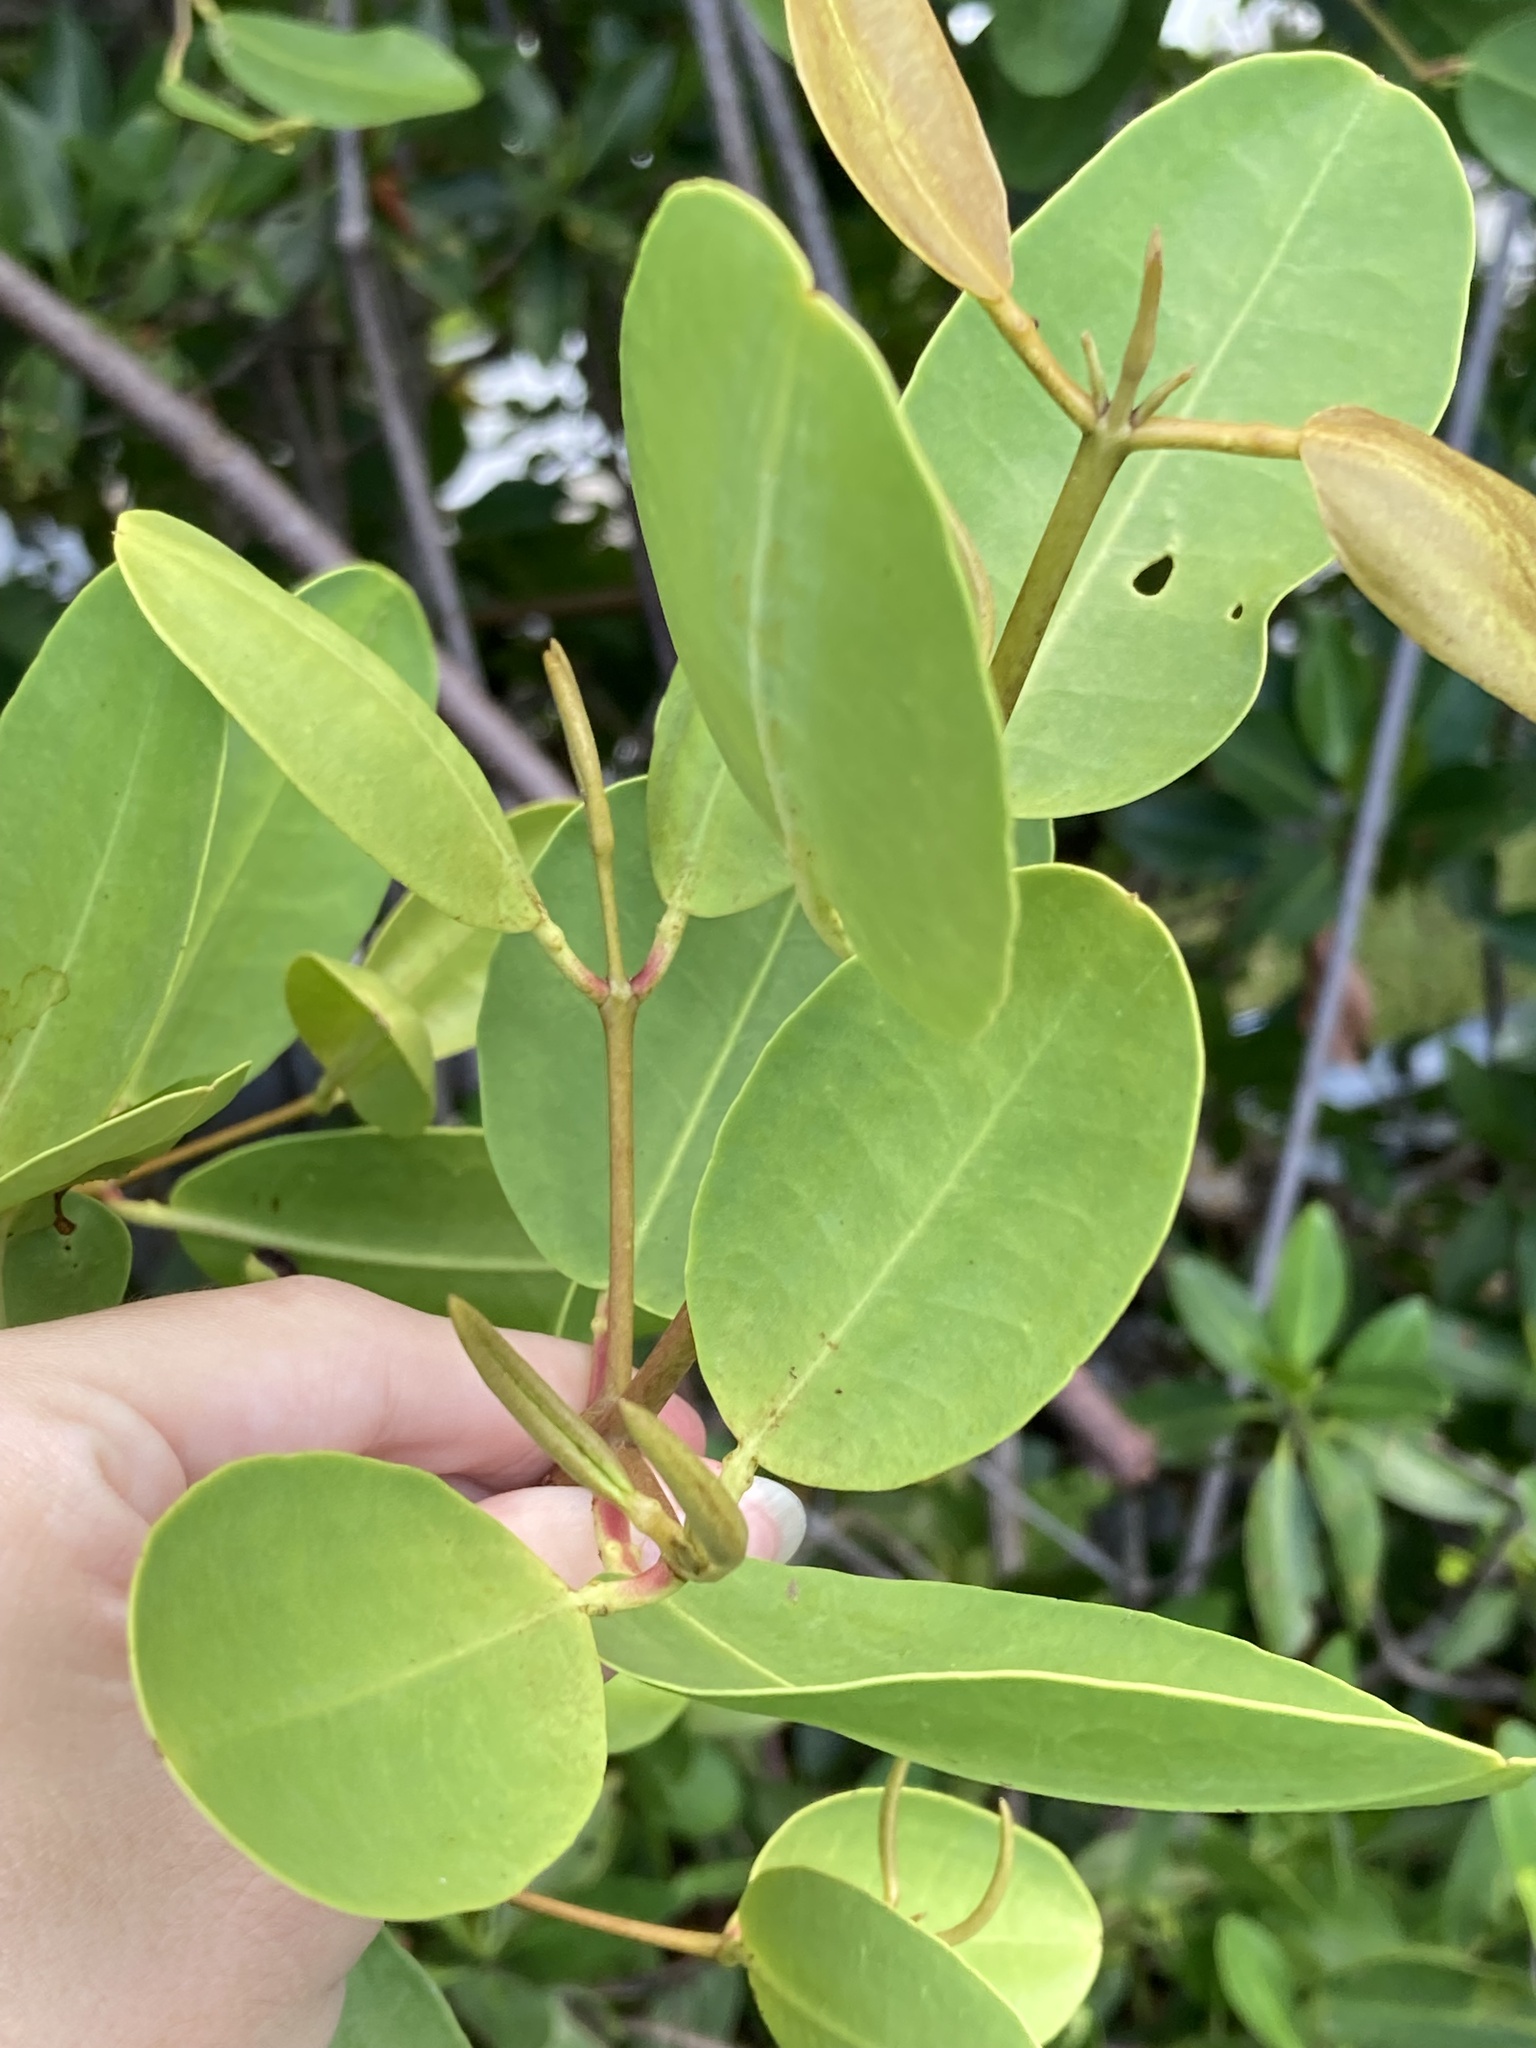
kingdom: Plantae
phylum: Tracheophyta
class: Magnoliopsida
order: Myrtales
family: Combretaceae
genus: Laguncularia
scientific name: Laguncularia racemosa
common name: White mangrove
